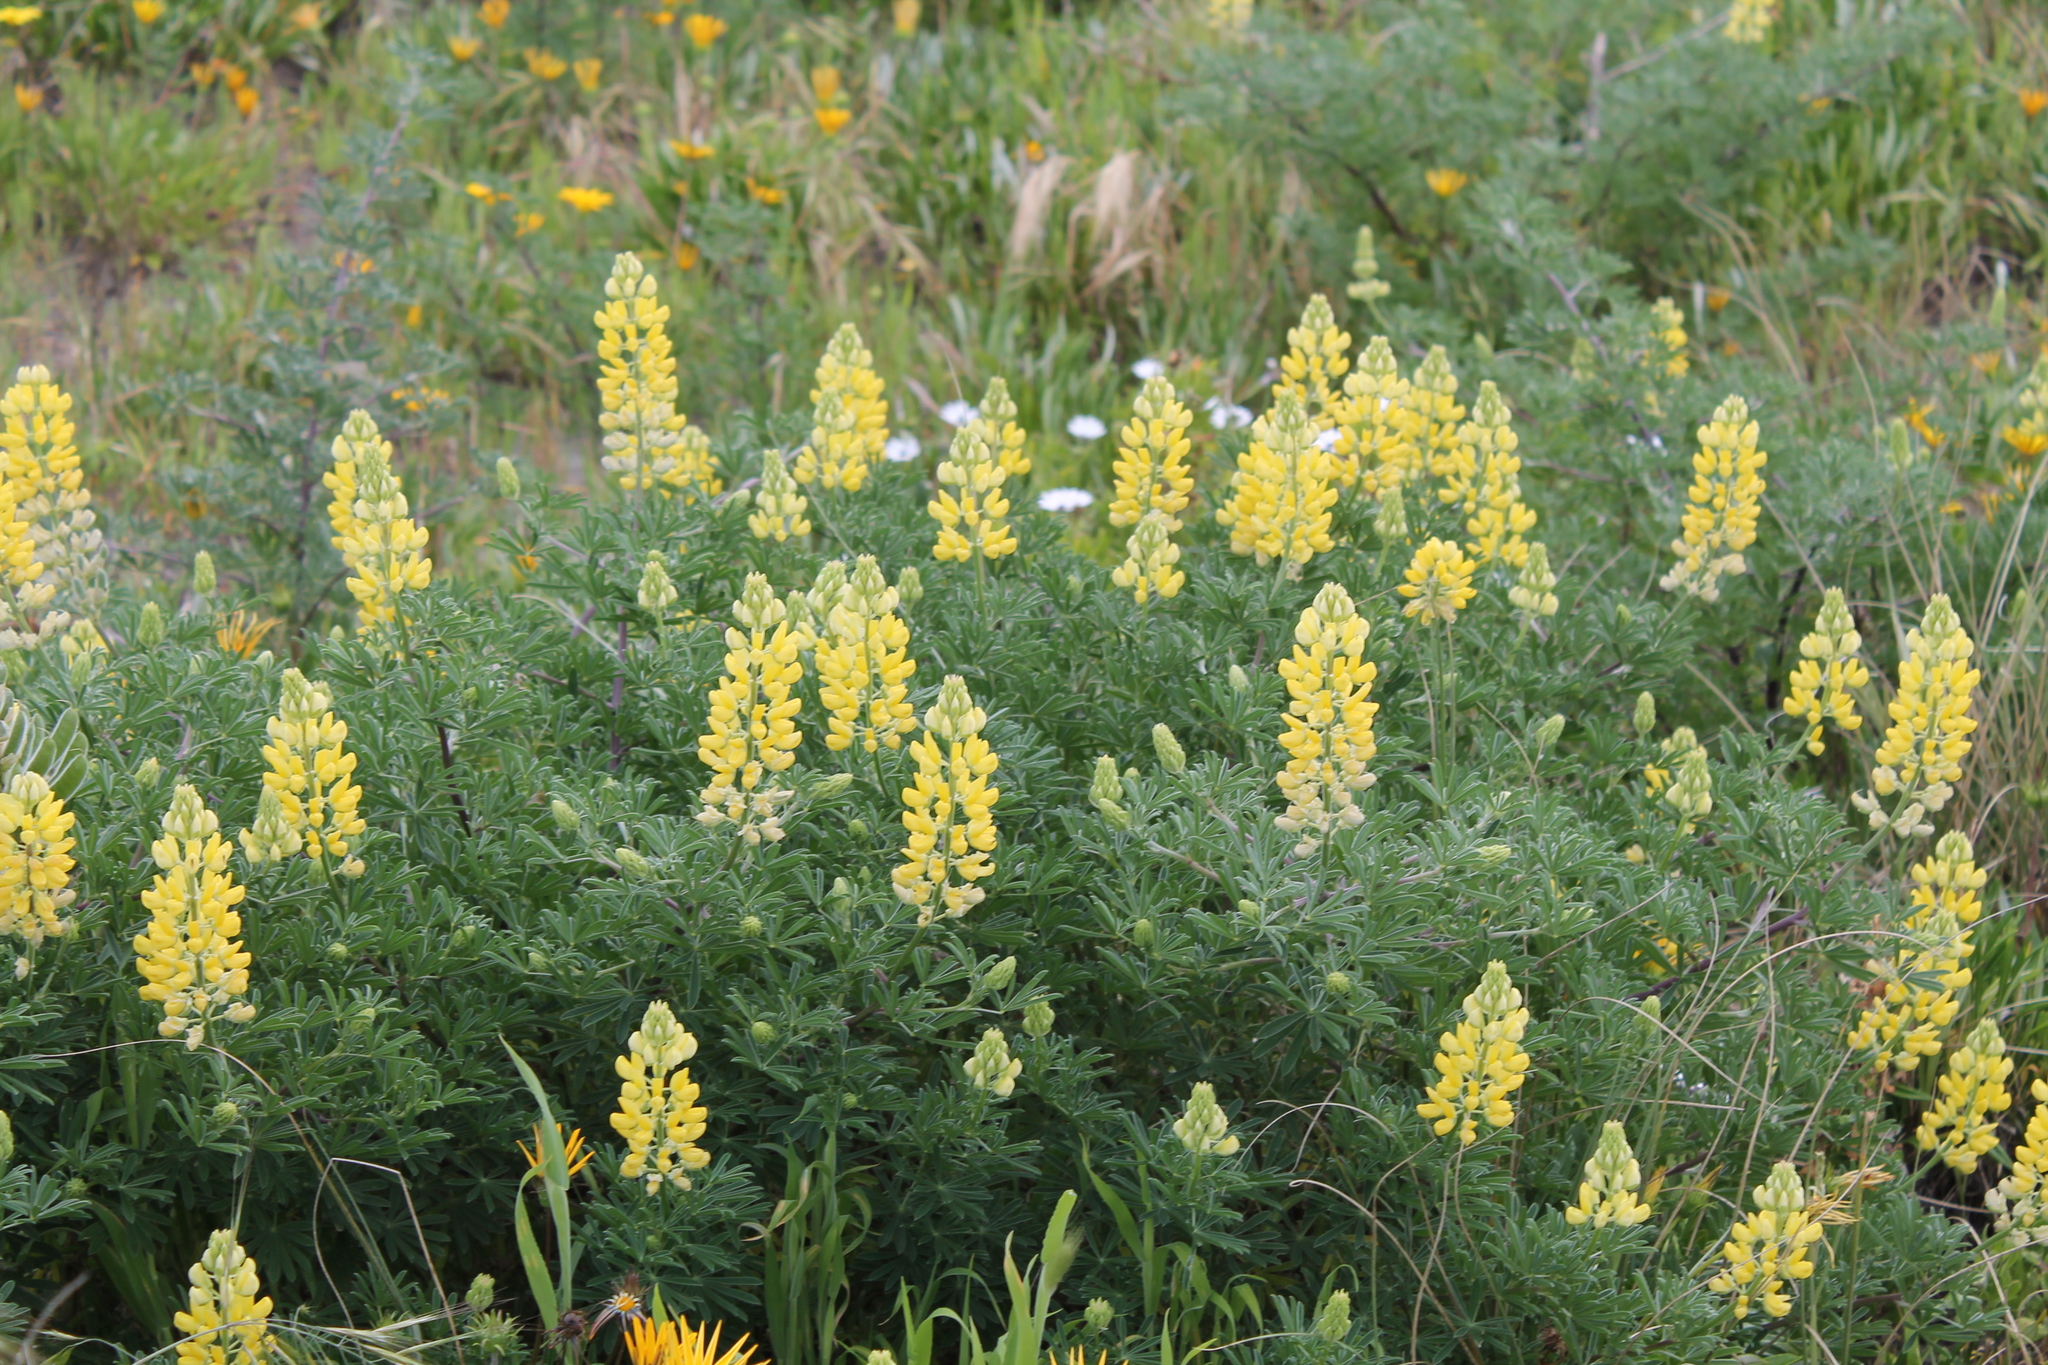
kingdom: Plantae
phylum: Tracheophyta
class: Magnoliopsida
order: Fabales
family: Fabaceae
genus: Lupinus
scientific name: Lupinus arboreus
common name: Yellow bush lupine
